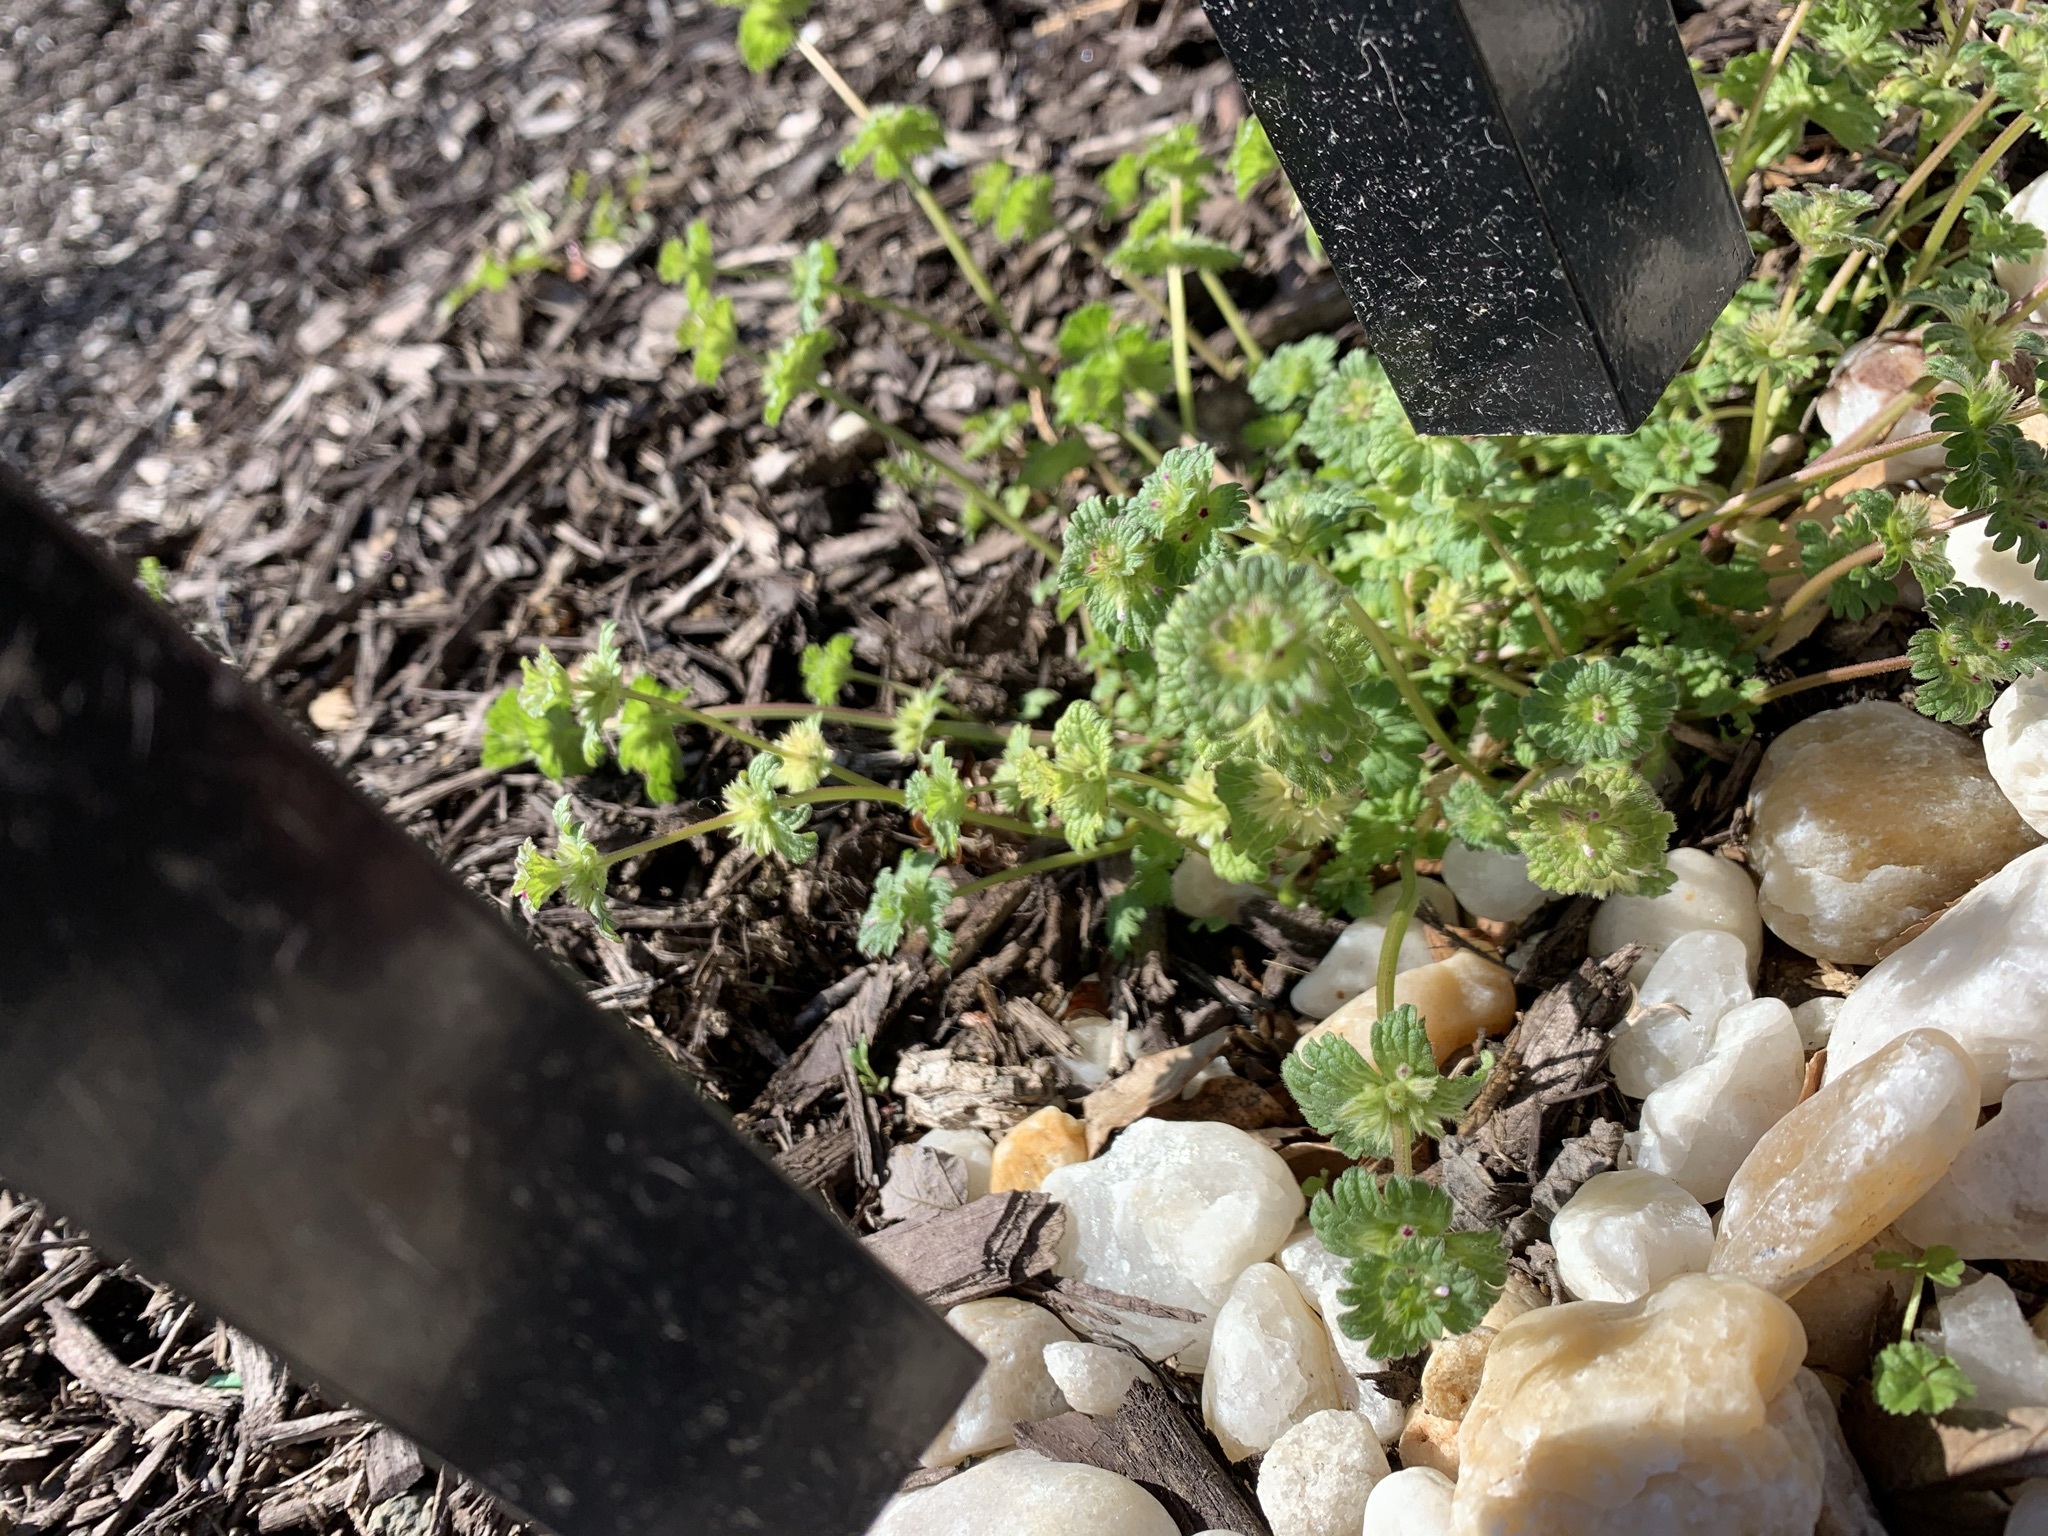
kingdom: Plantae
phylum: Tracheophyta
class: Magnoliopsida
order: Lamiales
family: Lamiaceae
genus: Lamium
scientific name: Lamium amplexicaule
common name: Henbit dead-nettle
